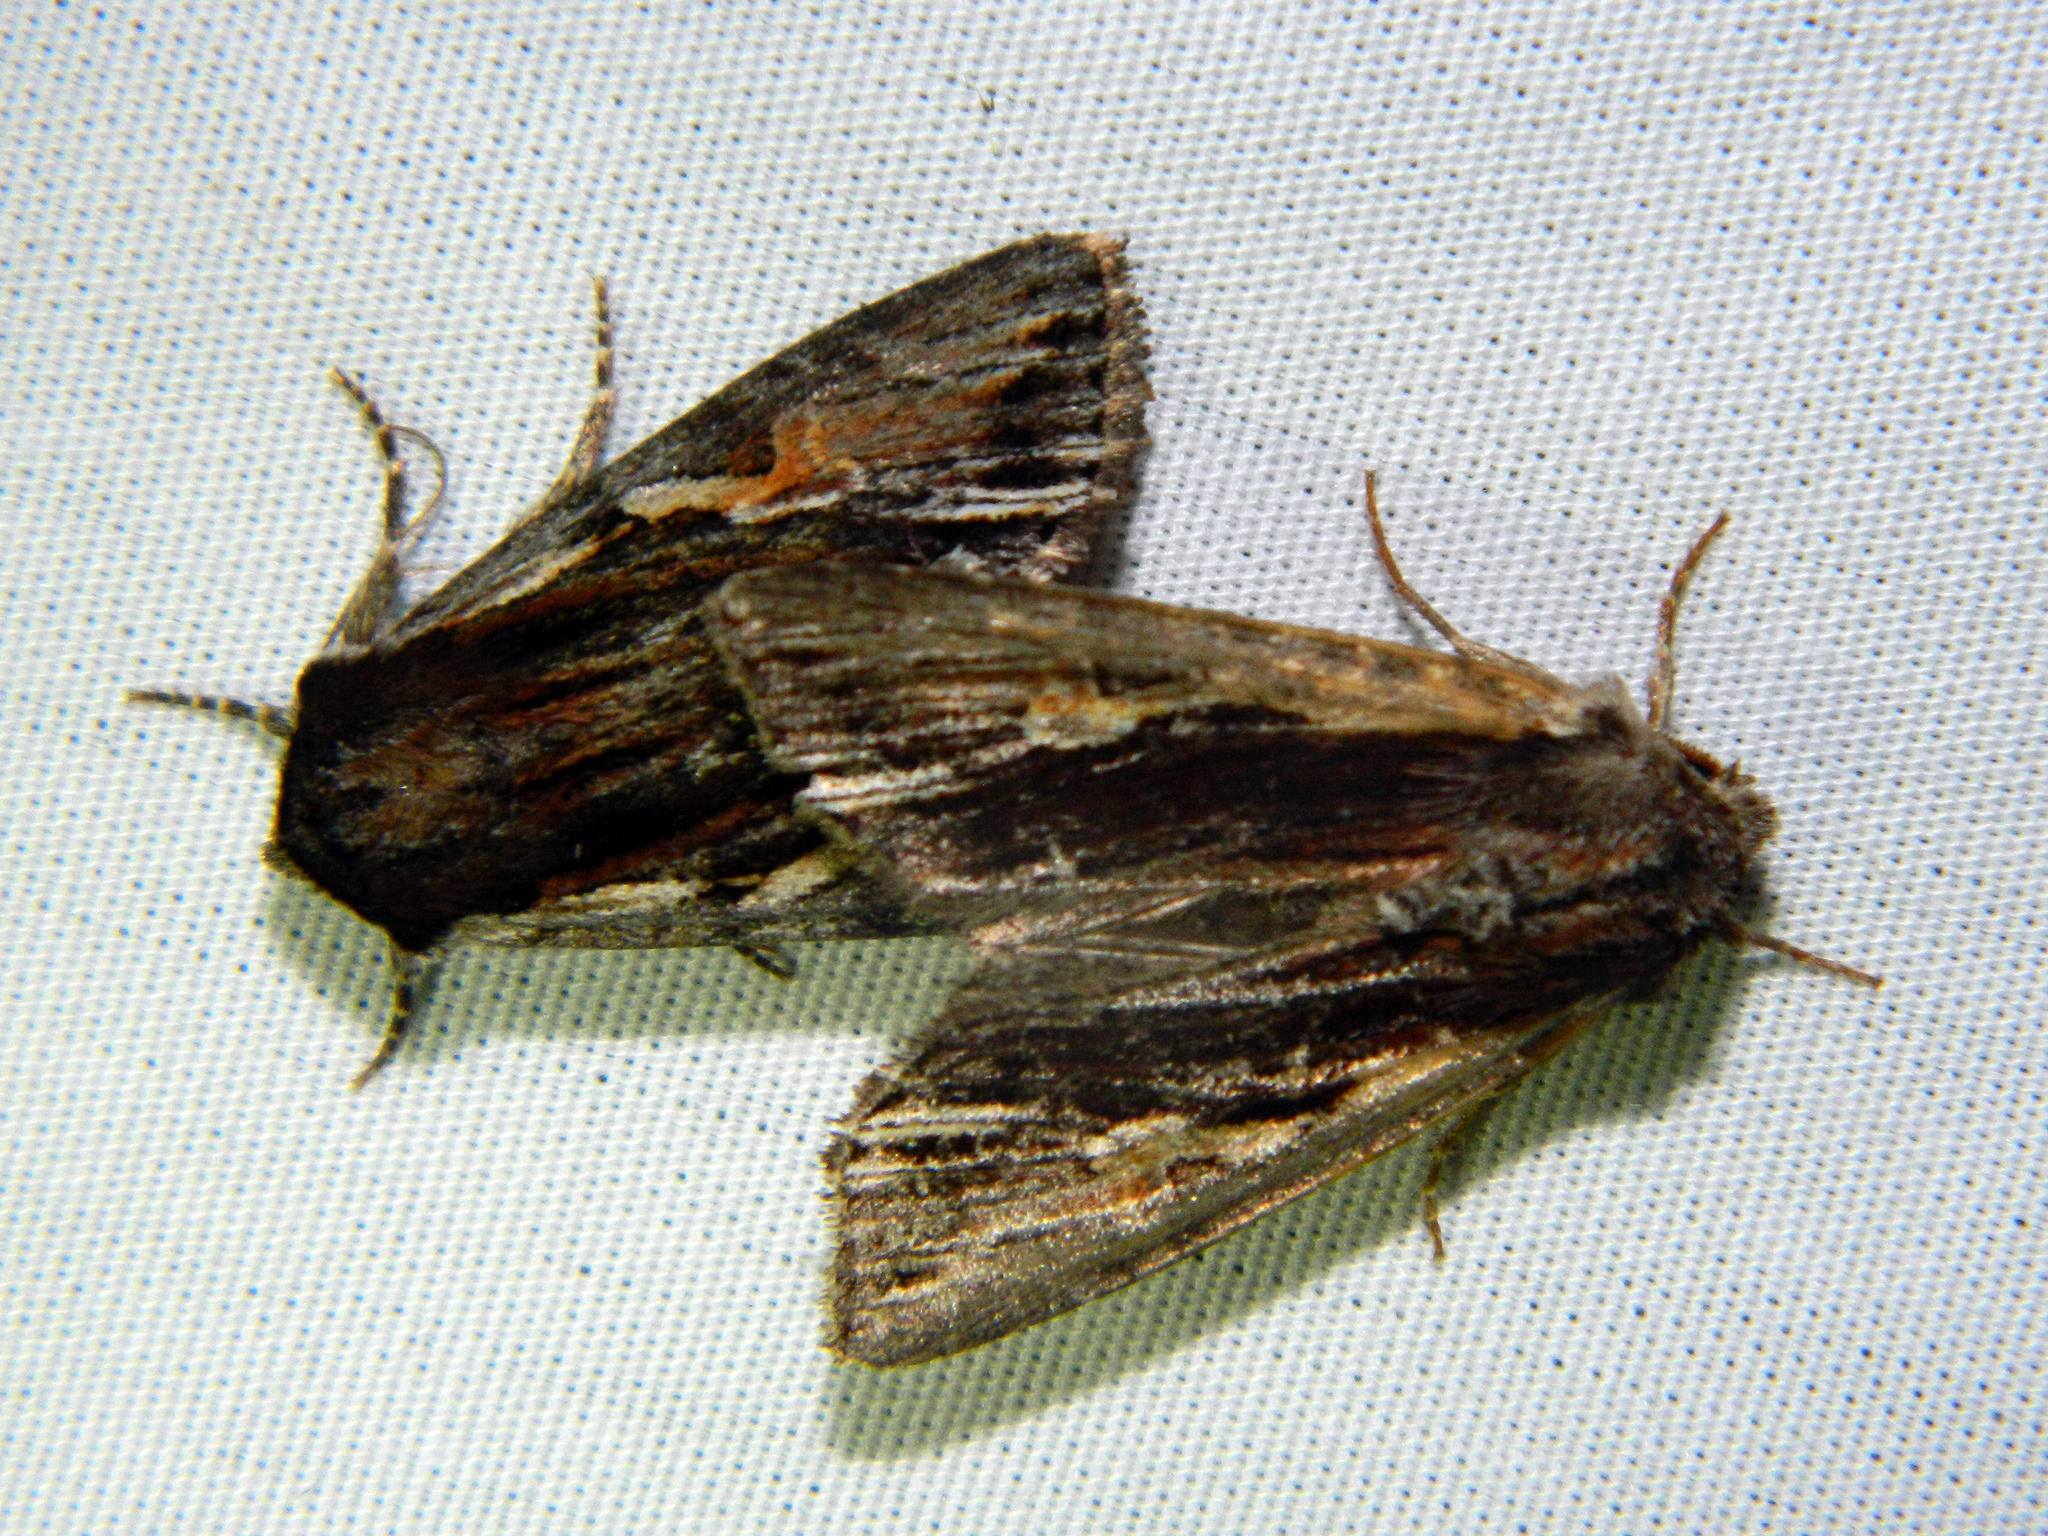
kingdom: Animalia
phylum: Arthropoda
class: Insecta
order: Lepidoptera
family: Noctuidae
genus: Achatia
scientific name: Achatia evicta
